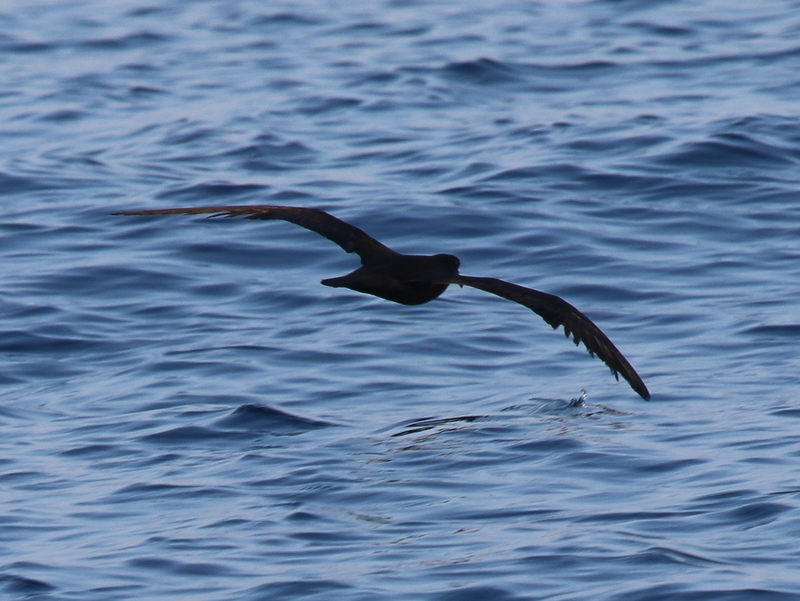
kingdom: Animalia
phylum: Chordata
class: Aves
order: Procellariiformes
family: Procellariidae
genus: Bulweria
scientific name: Bulweria fallax
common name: Jouanin's petrel
